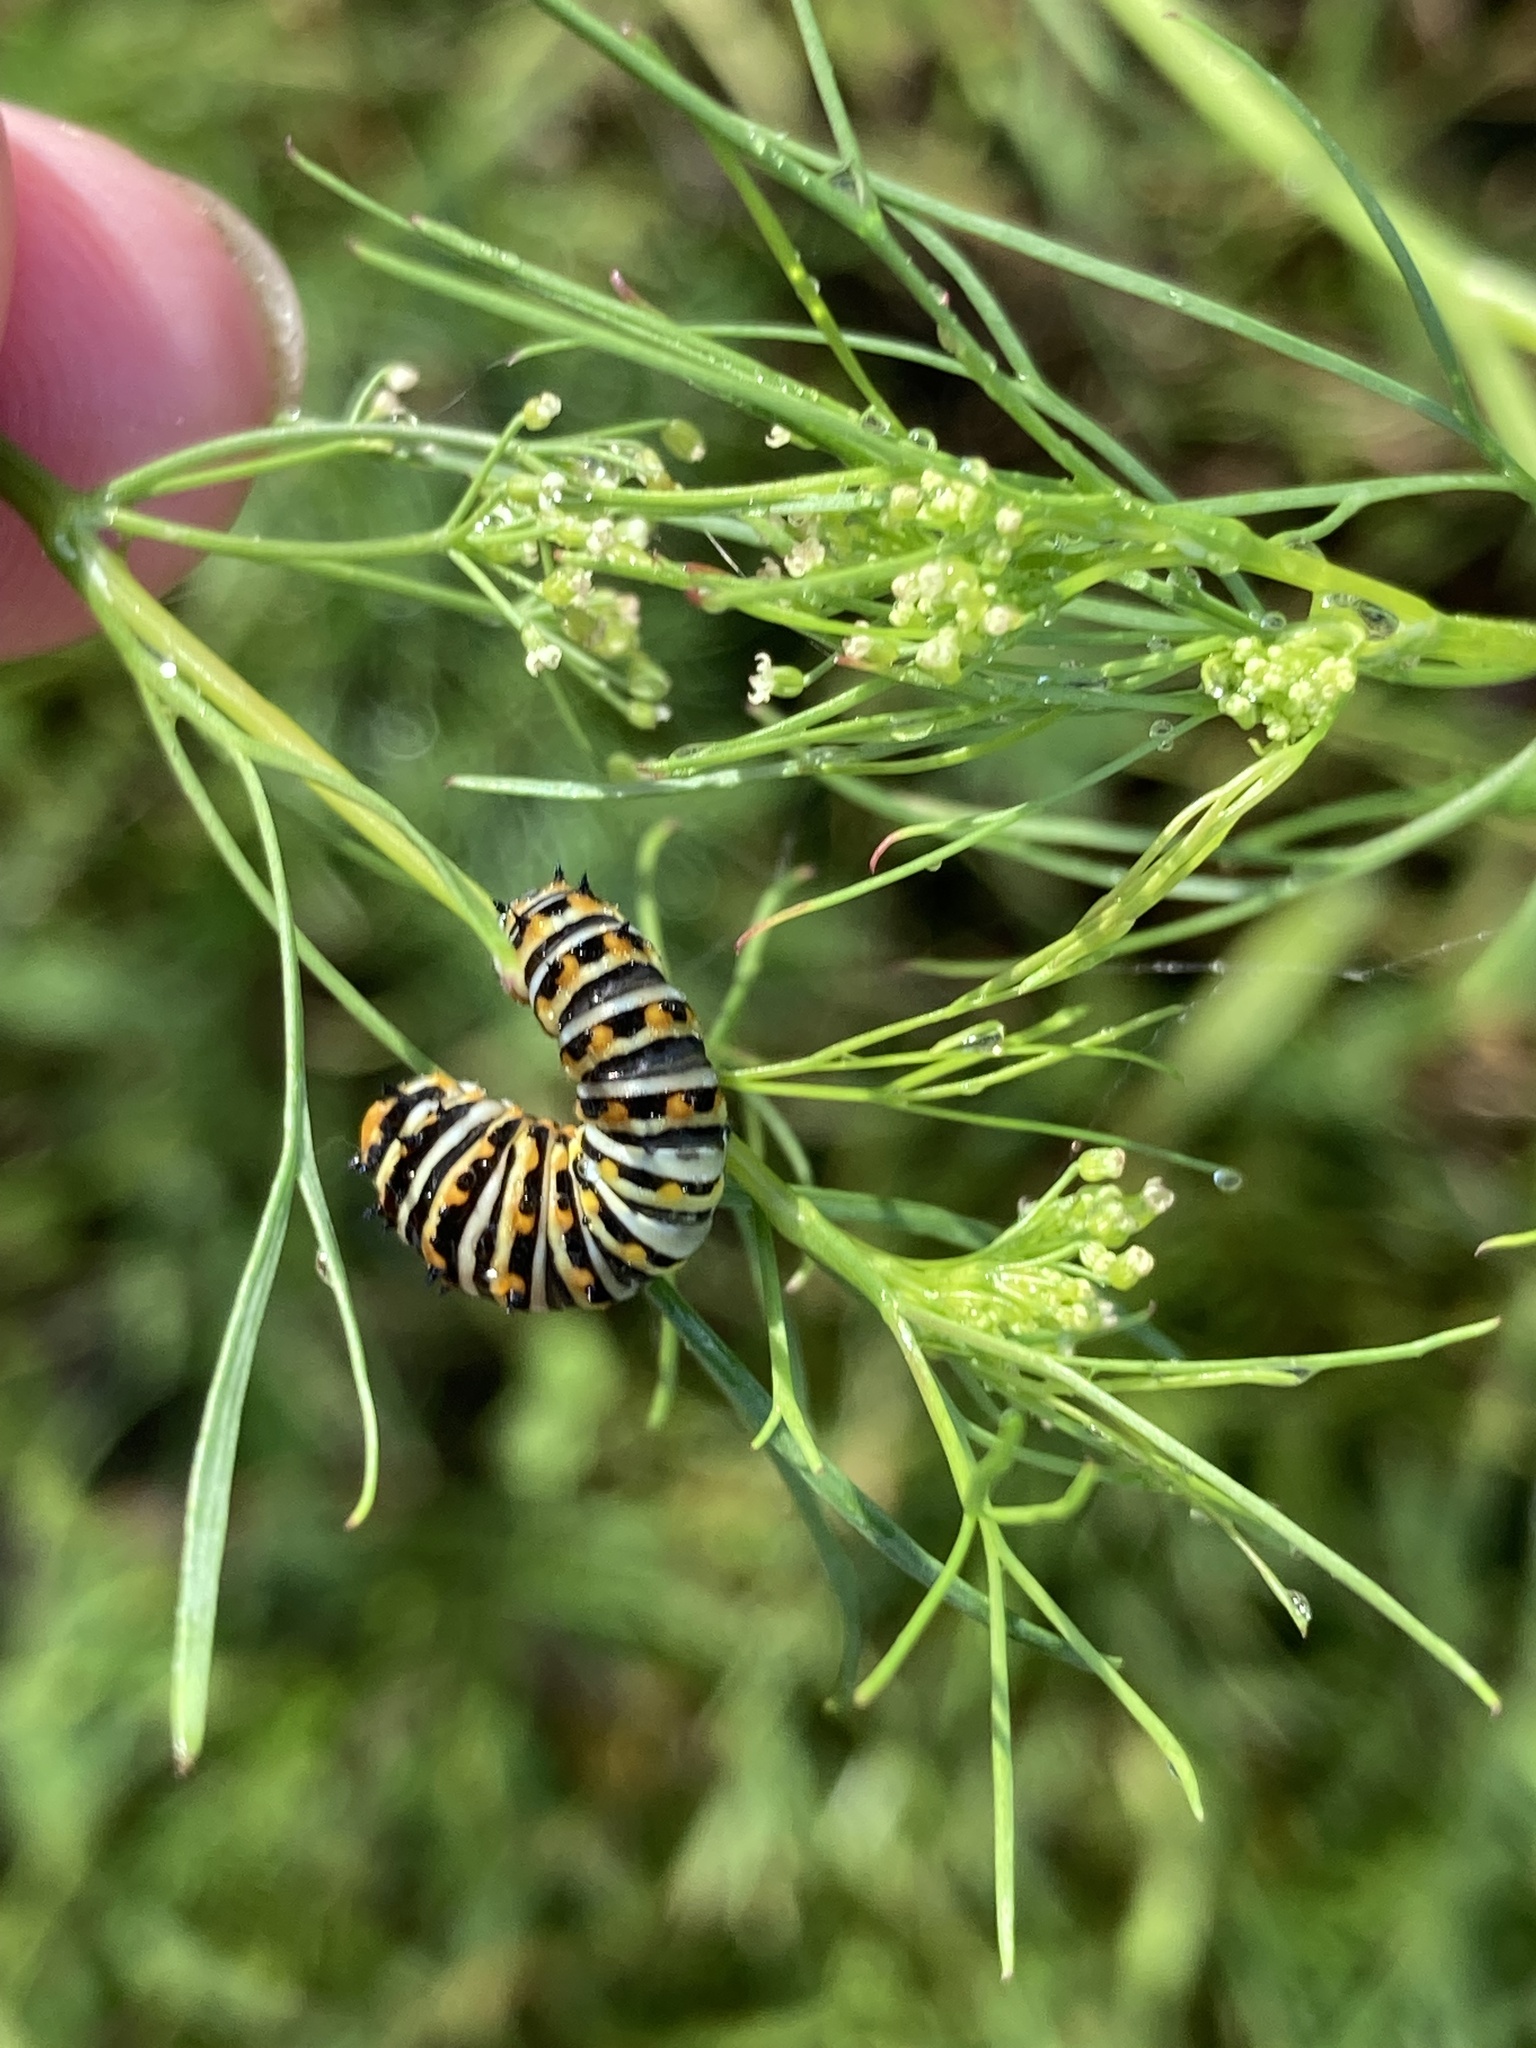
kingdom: Animalia
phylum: Arthropoda
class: Insecta
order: Lepidoptera
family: Papilionidae
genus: Papilio
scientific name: Papilio polyxenes
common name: Black swallowtail
